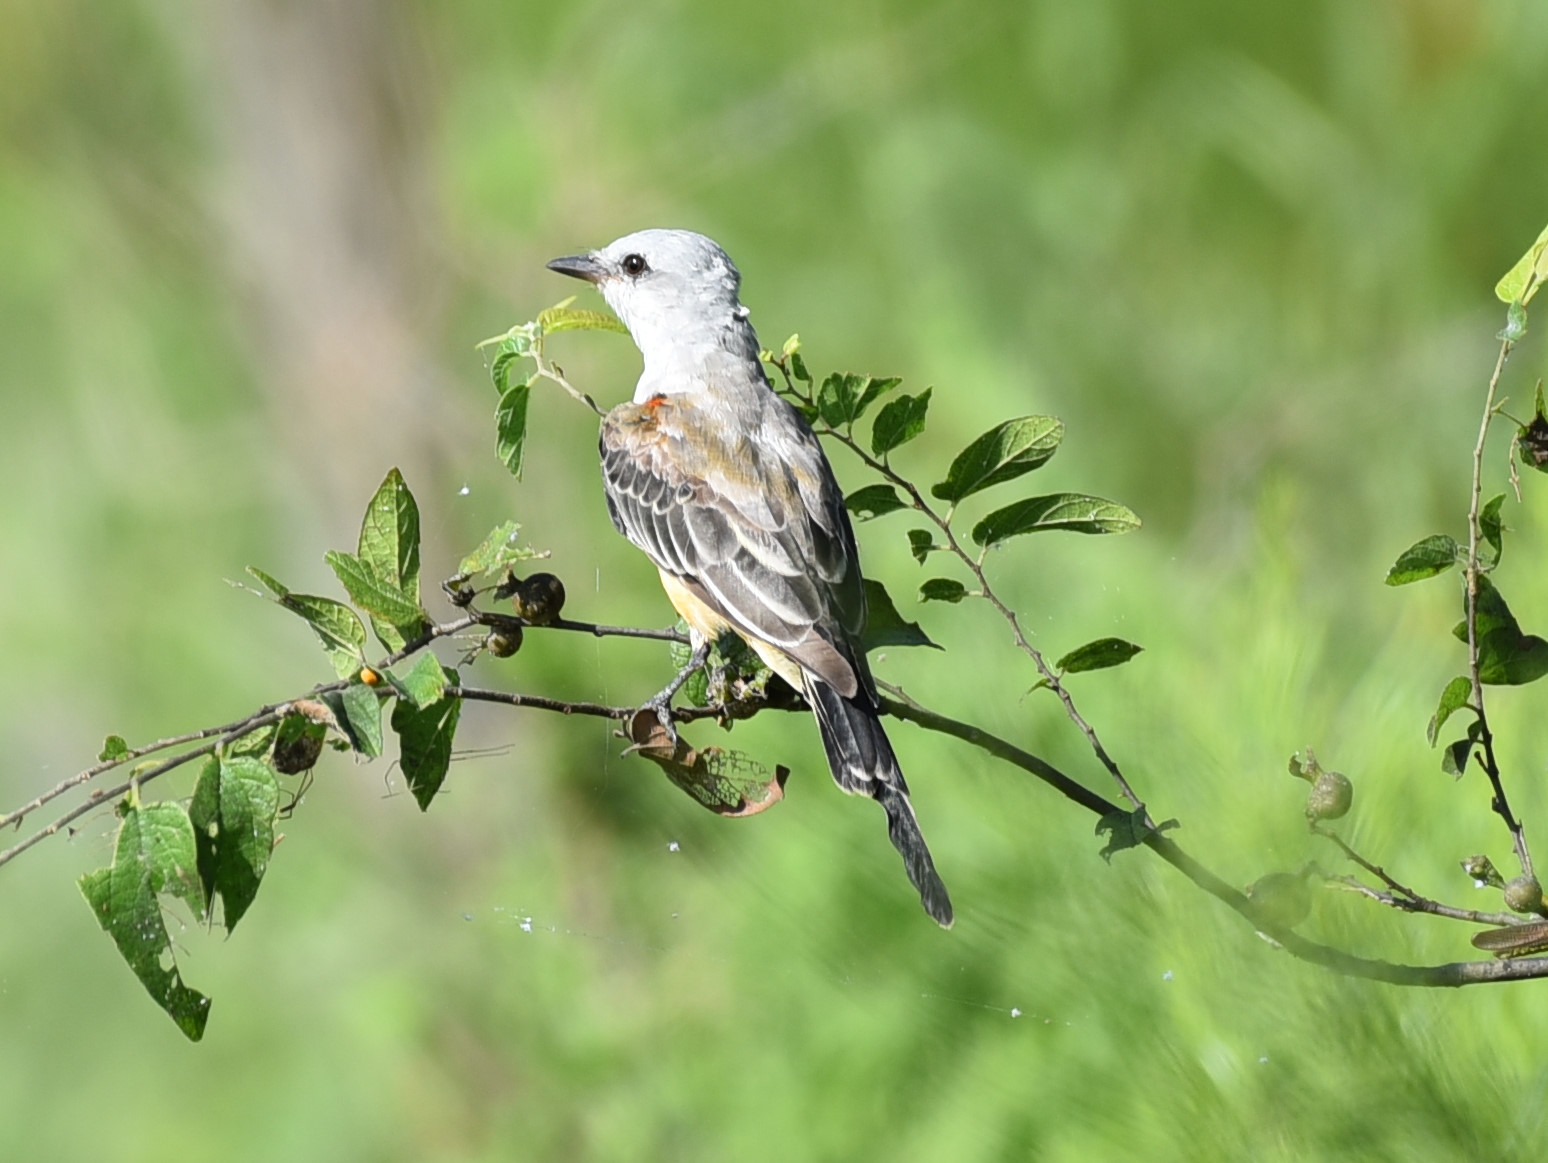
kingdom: Animalia
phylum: Chordata
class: Aves
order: Passeriformes
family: Tyrannidae
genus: Tyrannus
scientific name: Tyrannus forficatus
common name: Scissor-tailed flycatcher
